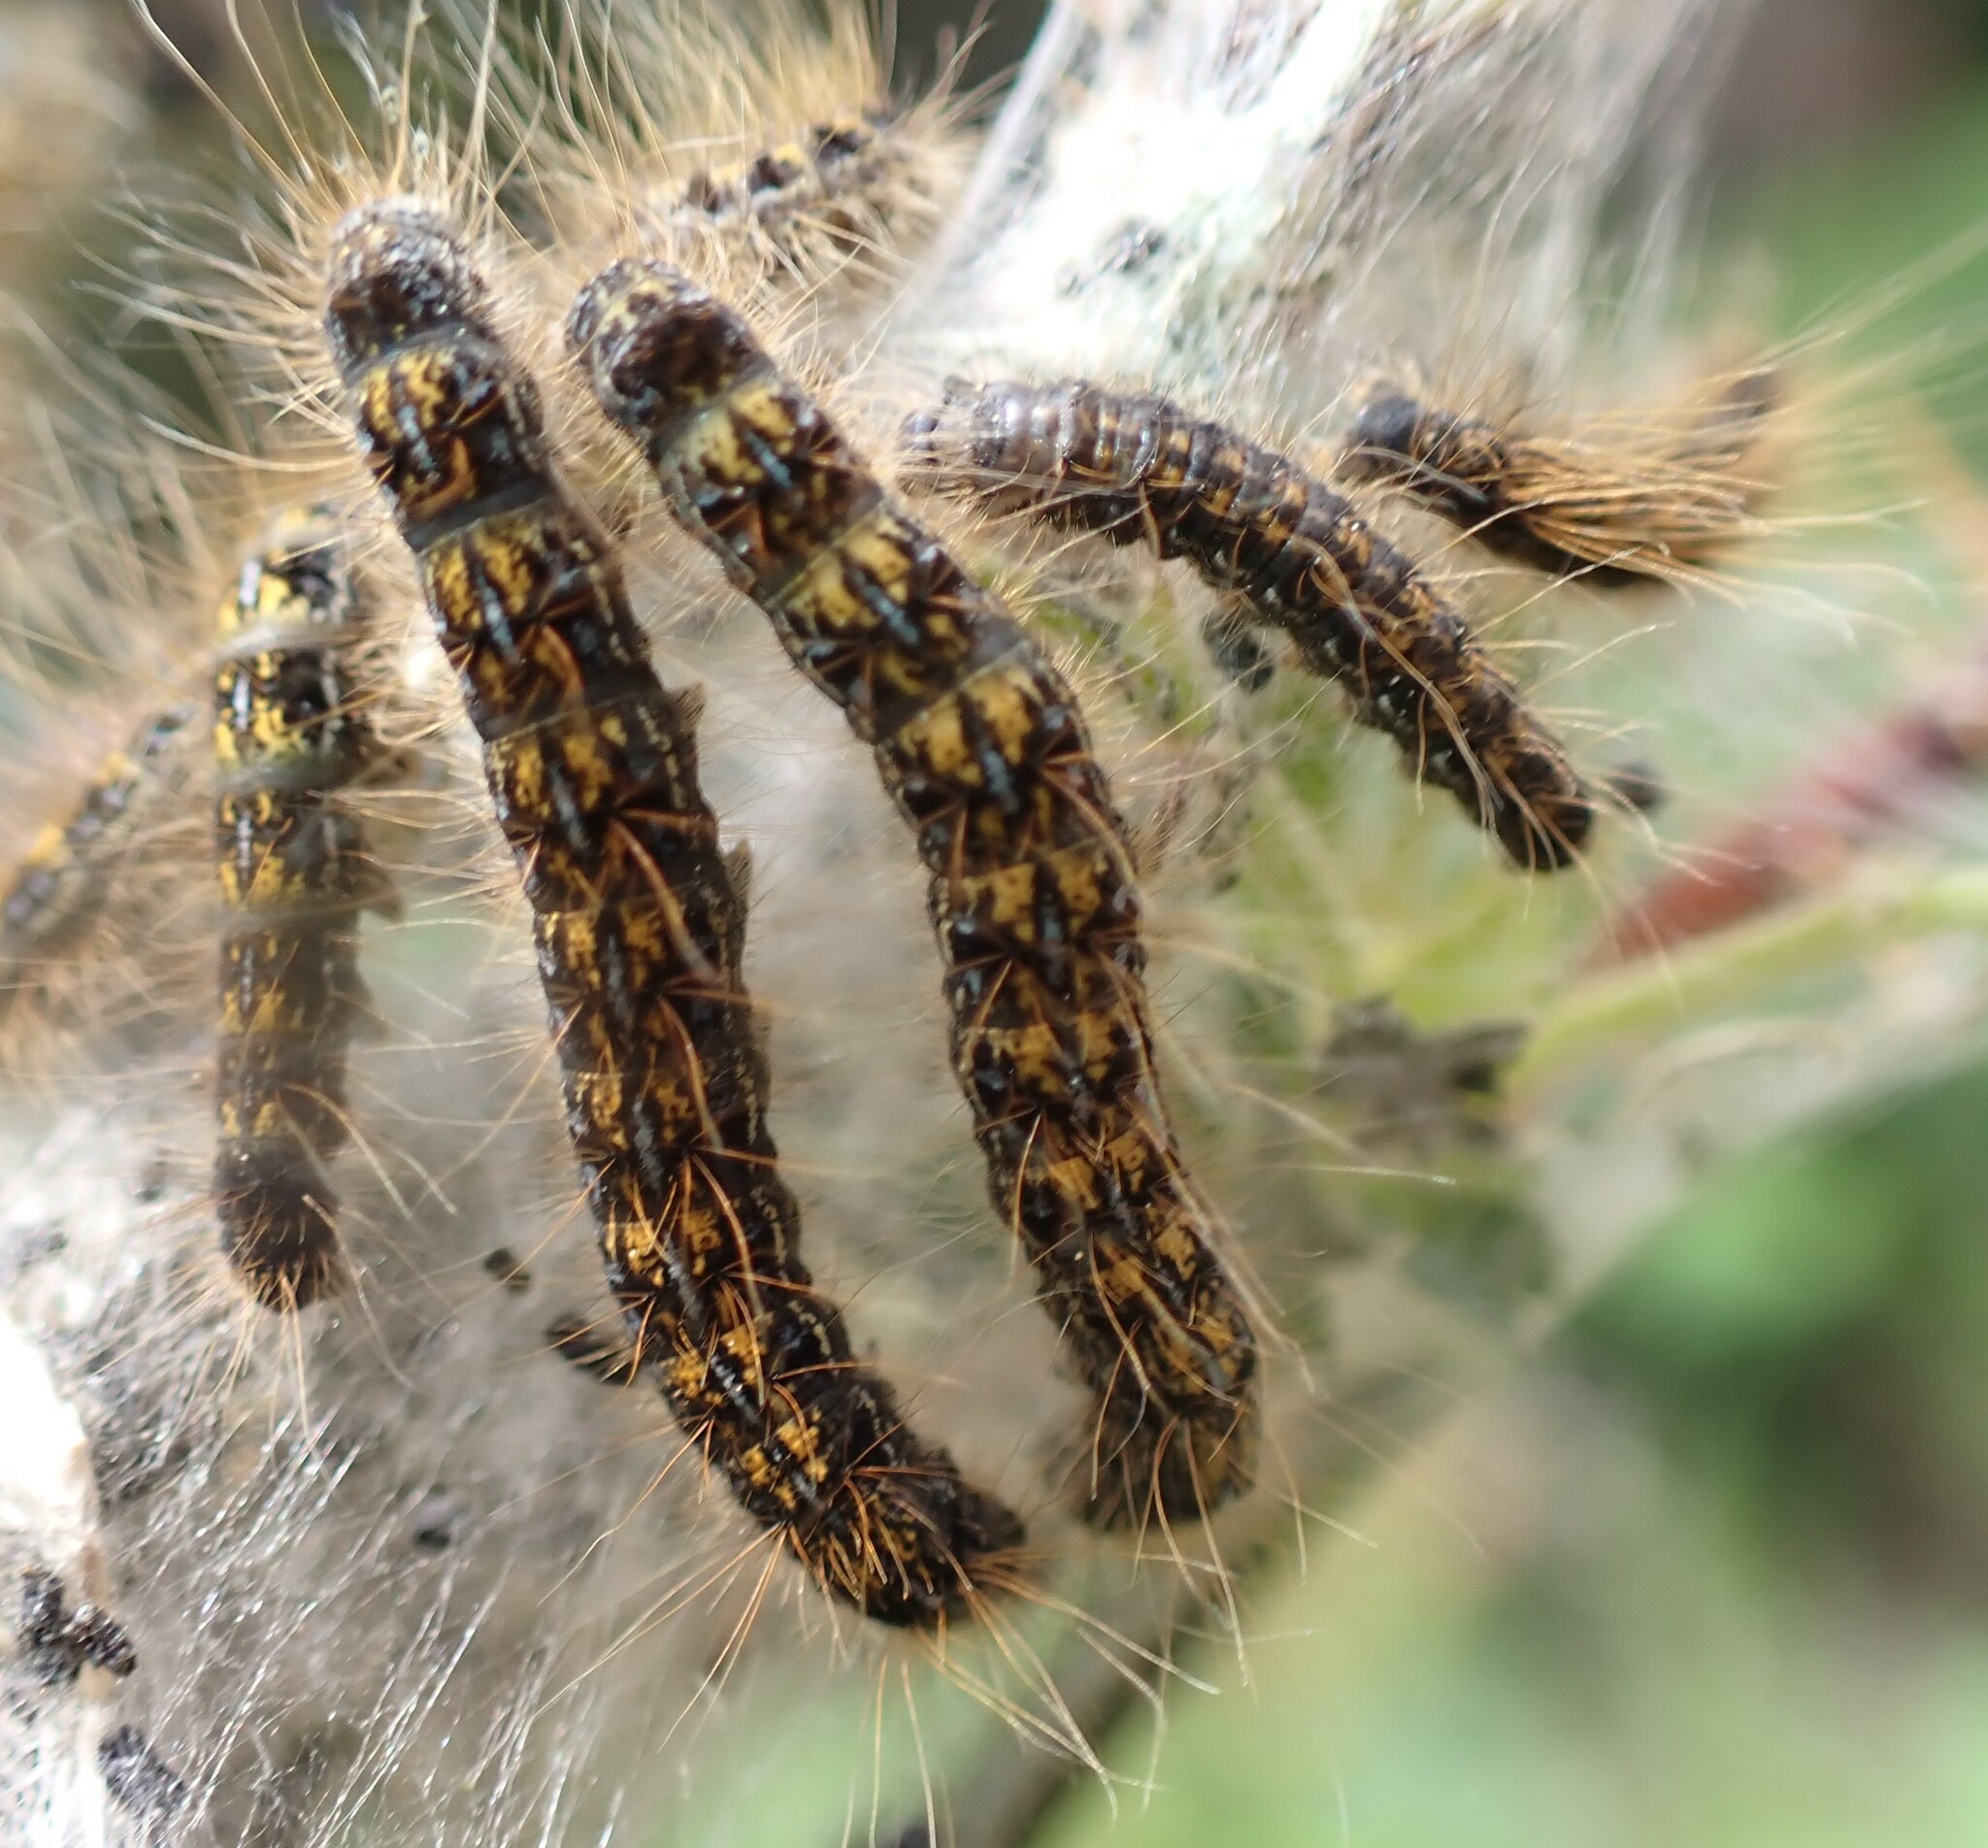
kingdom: Animalia
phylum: Arthropoda
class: Insecta
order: Lepidoptera
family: Lasiocampidae
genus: Malacosoma
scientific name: Malacosoma californica
